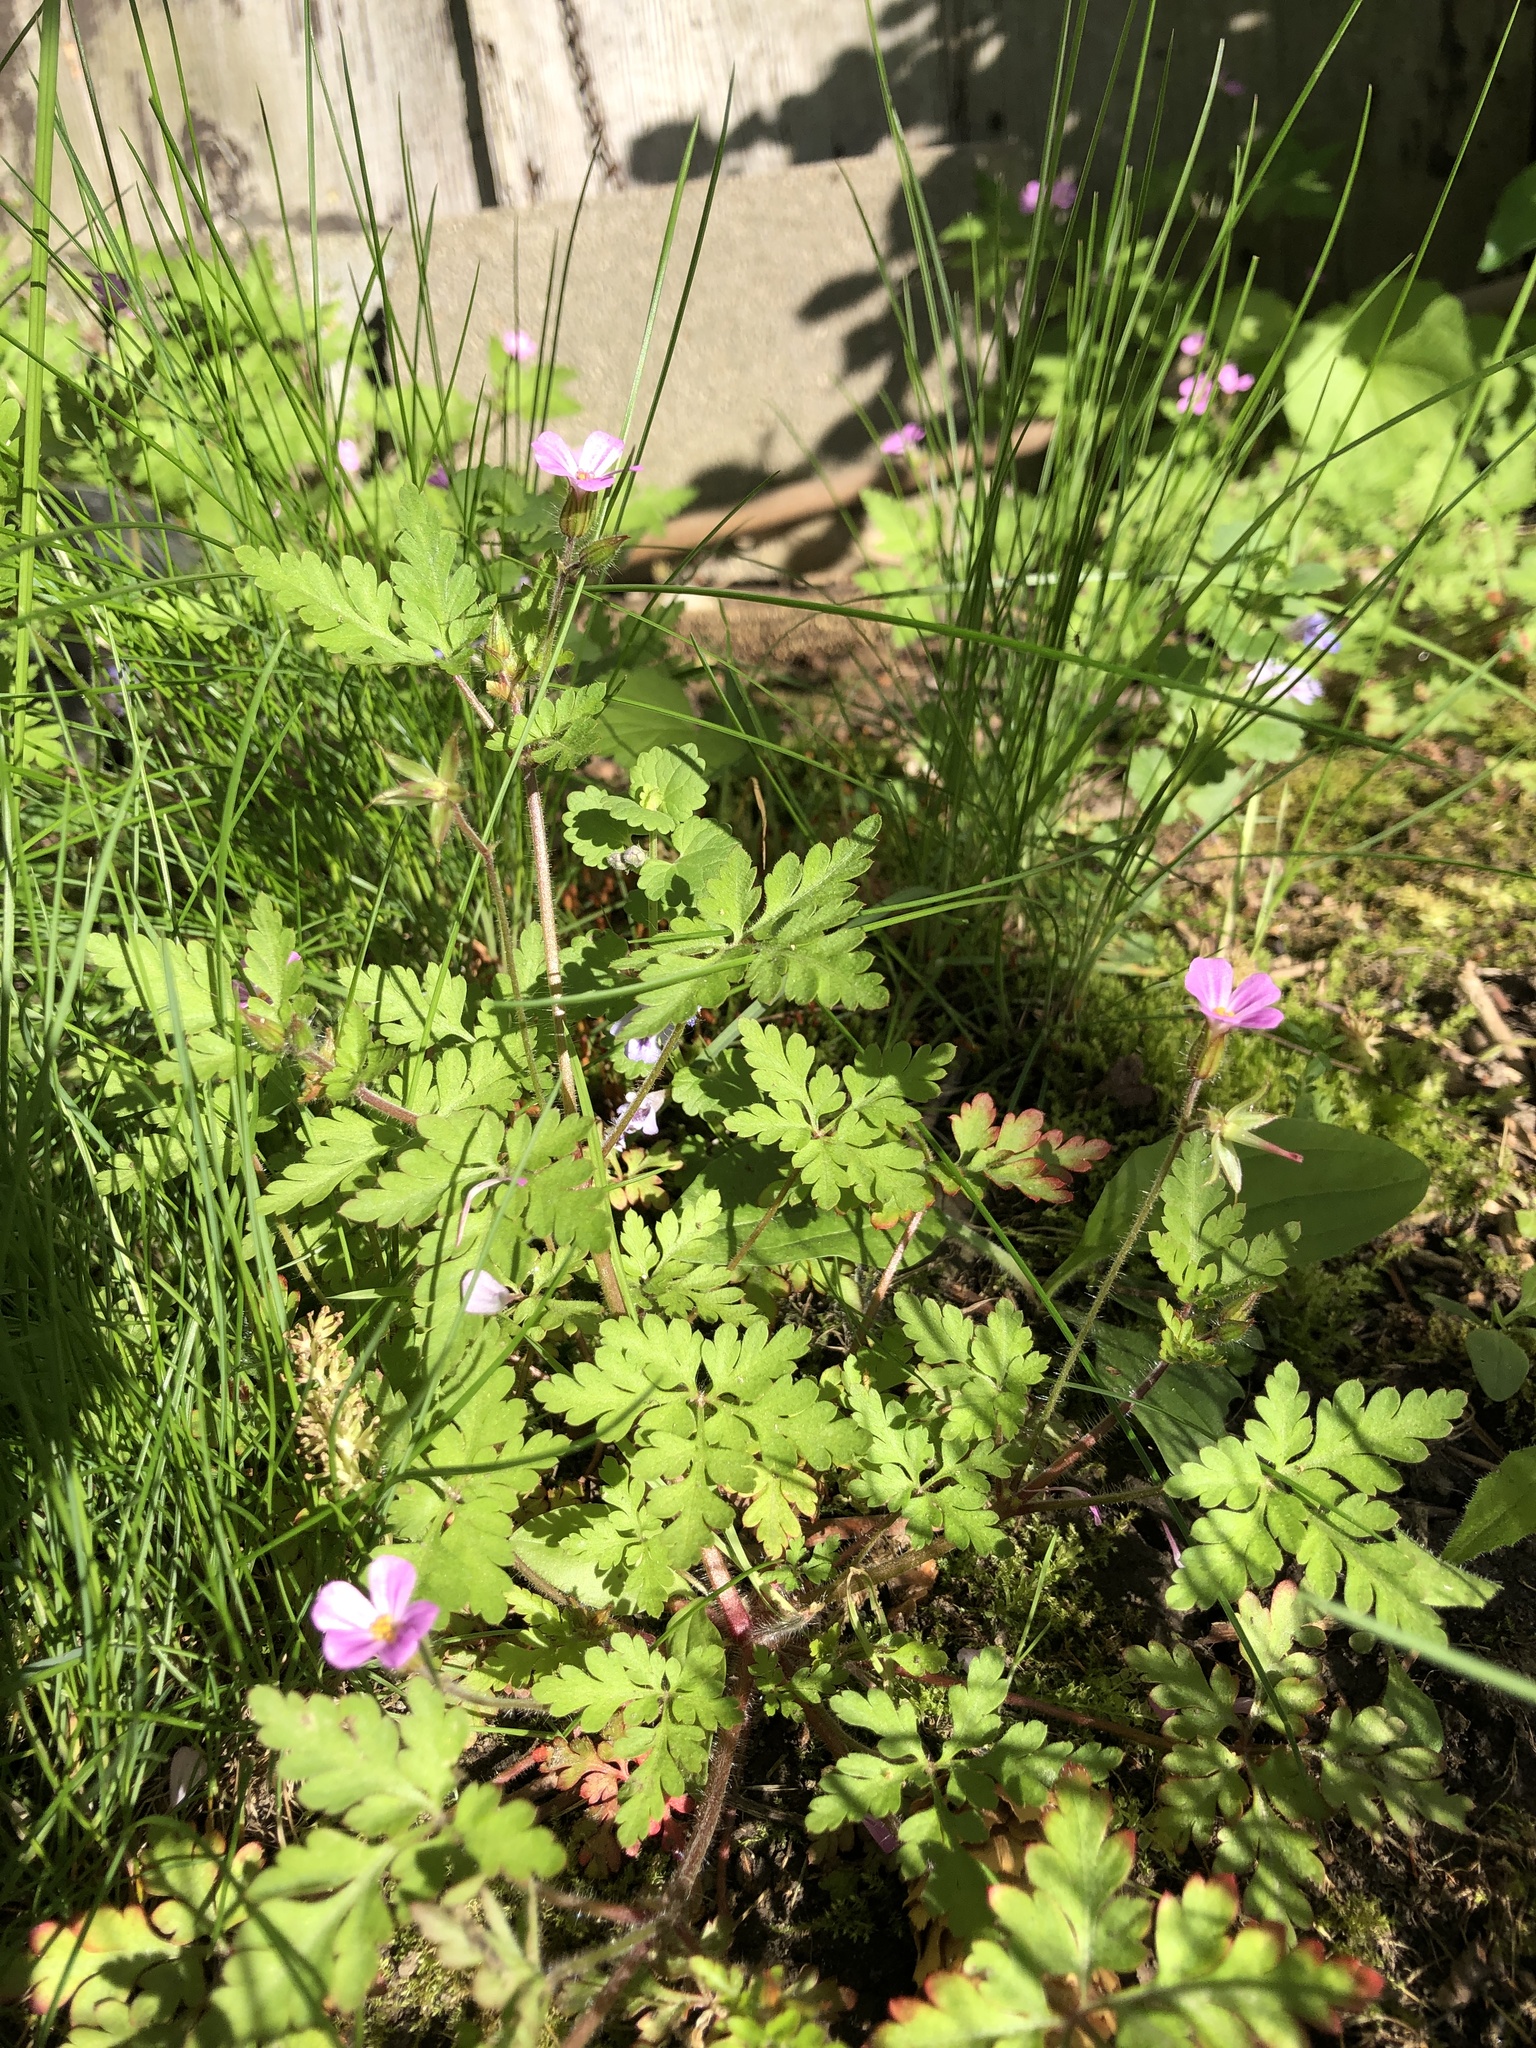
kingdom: Plantae
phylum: Tracheophyta
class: Magnoliopsida
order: Geraniales
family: Geraniaceae
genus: Geranium
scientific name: Geranium robertianum
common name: Herb-robert
